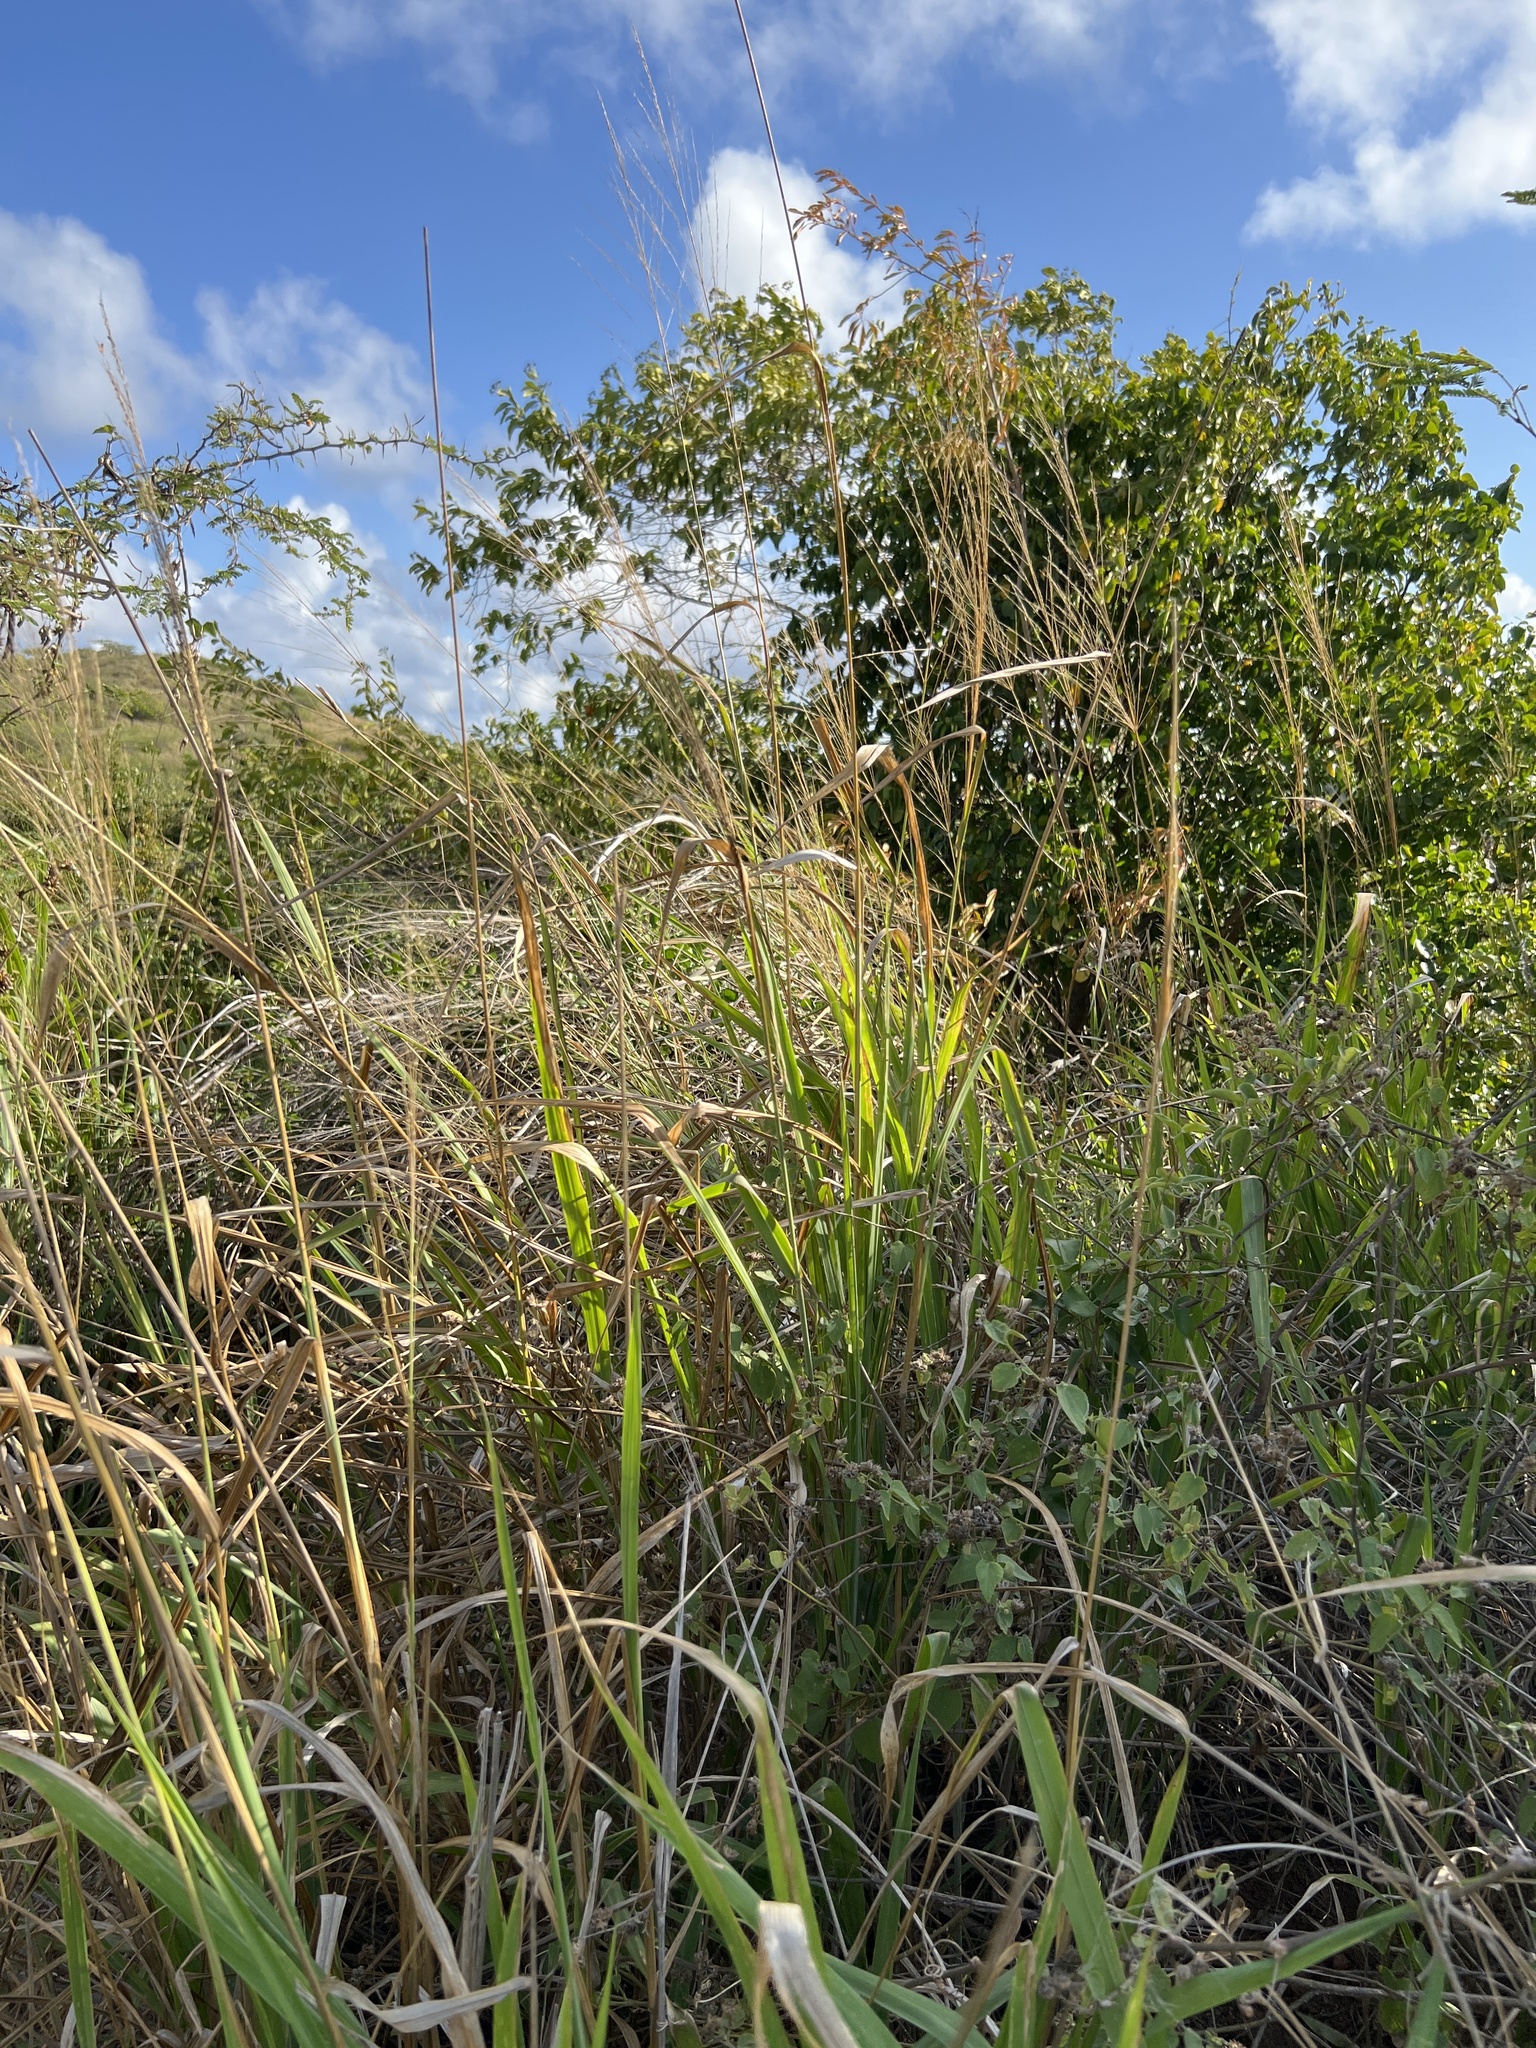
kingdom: Plantae
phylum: Tracheophyta
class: Liliopsida
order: Poales
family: Poaceae
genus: Megathyrsus
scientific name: Megathyrsus maximus
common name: Guineagrass
